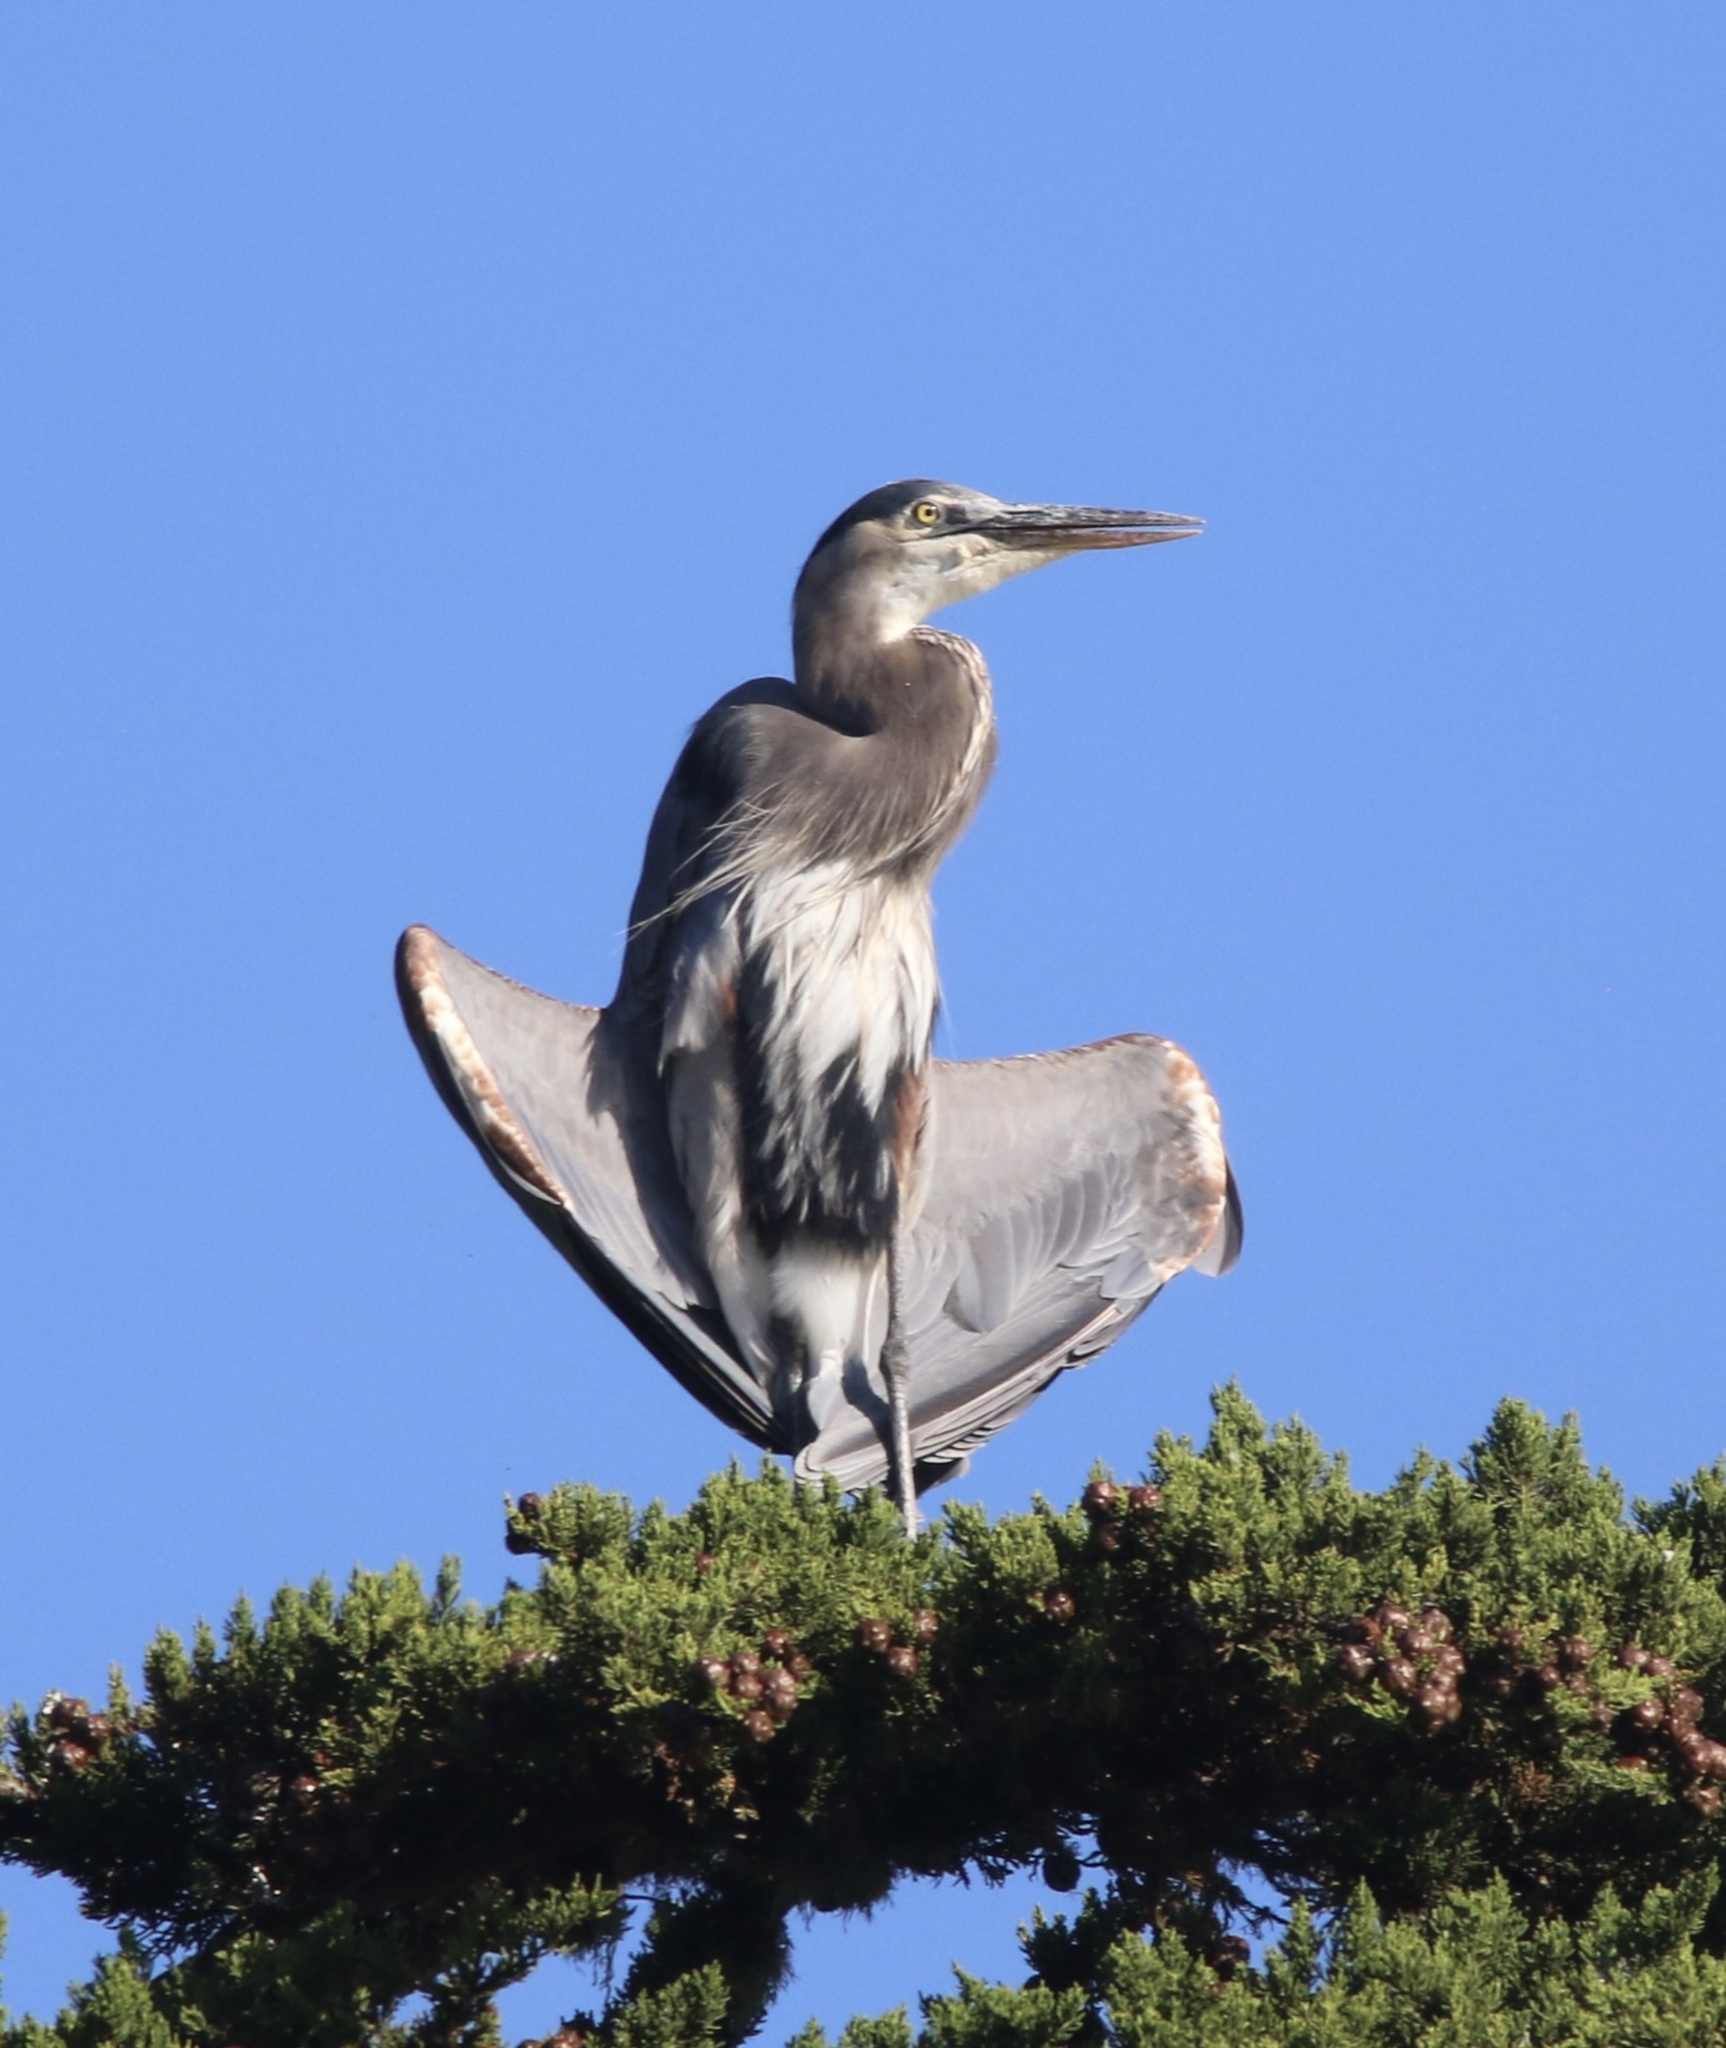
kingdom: Animalia
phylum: Chordata
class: Aves
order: Pelecaniformes
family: Ardeidae
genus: Ardea
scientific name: Ardea herodias
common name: Great blue heron
